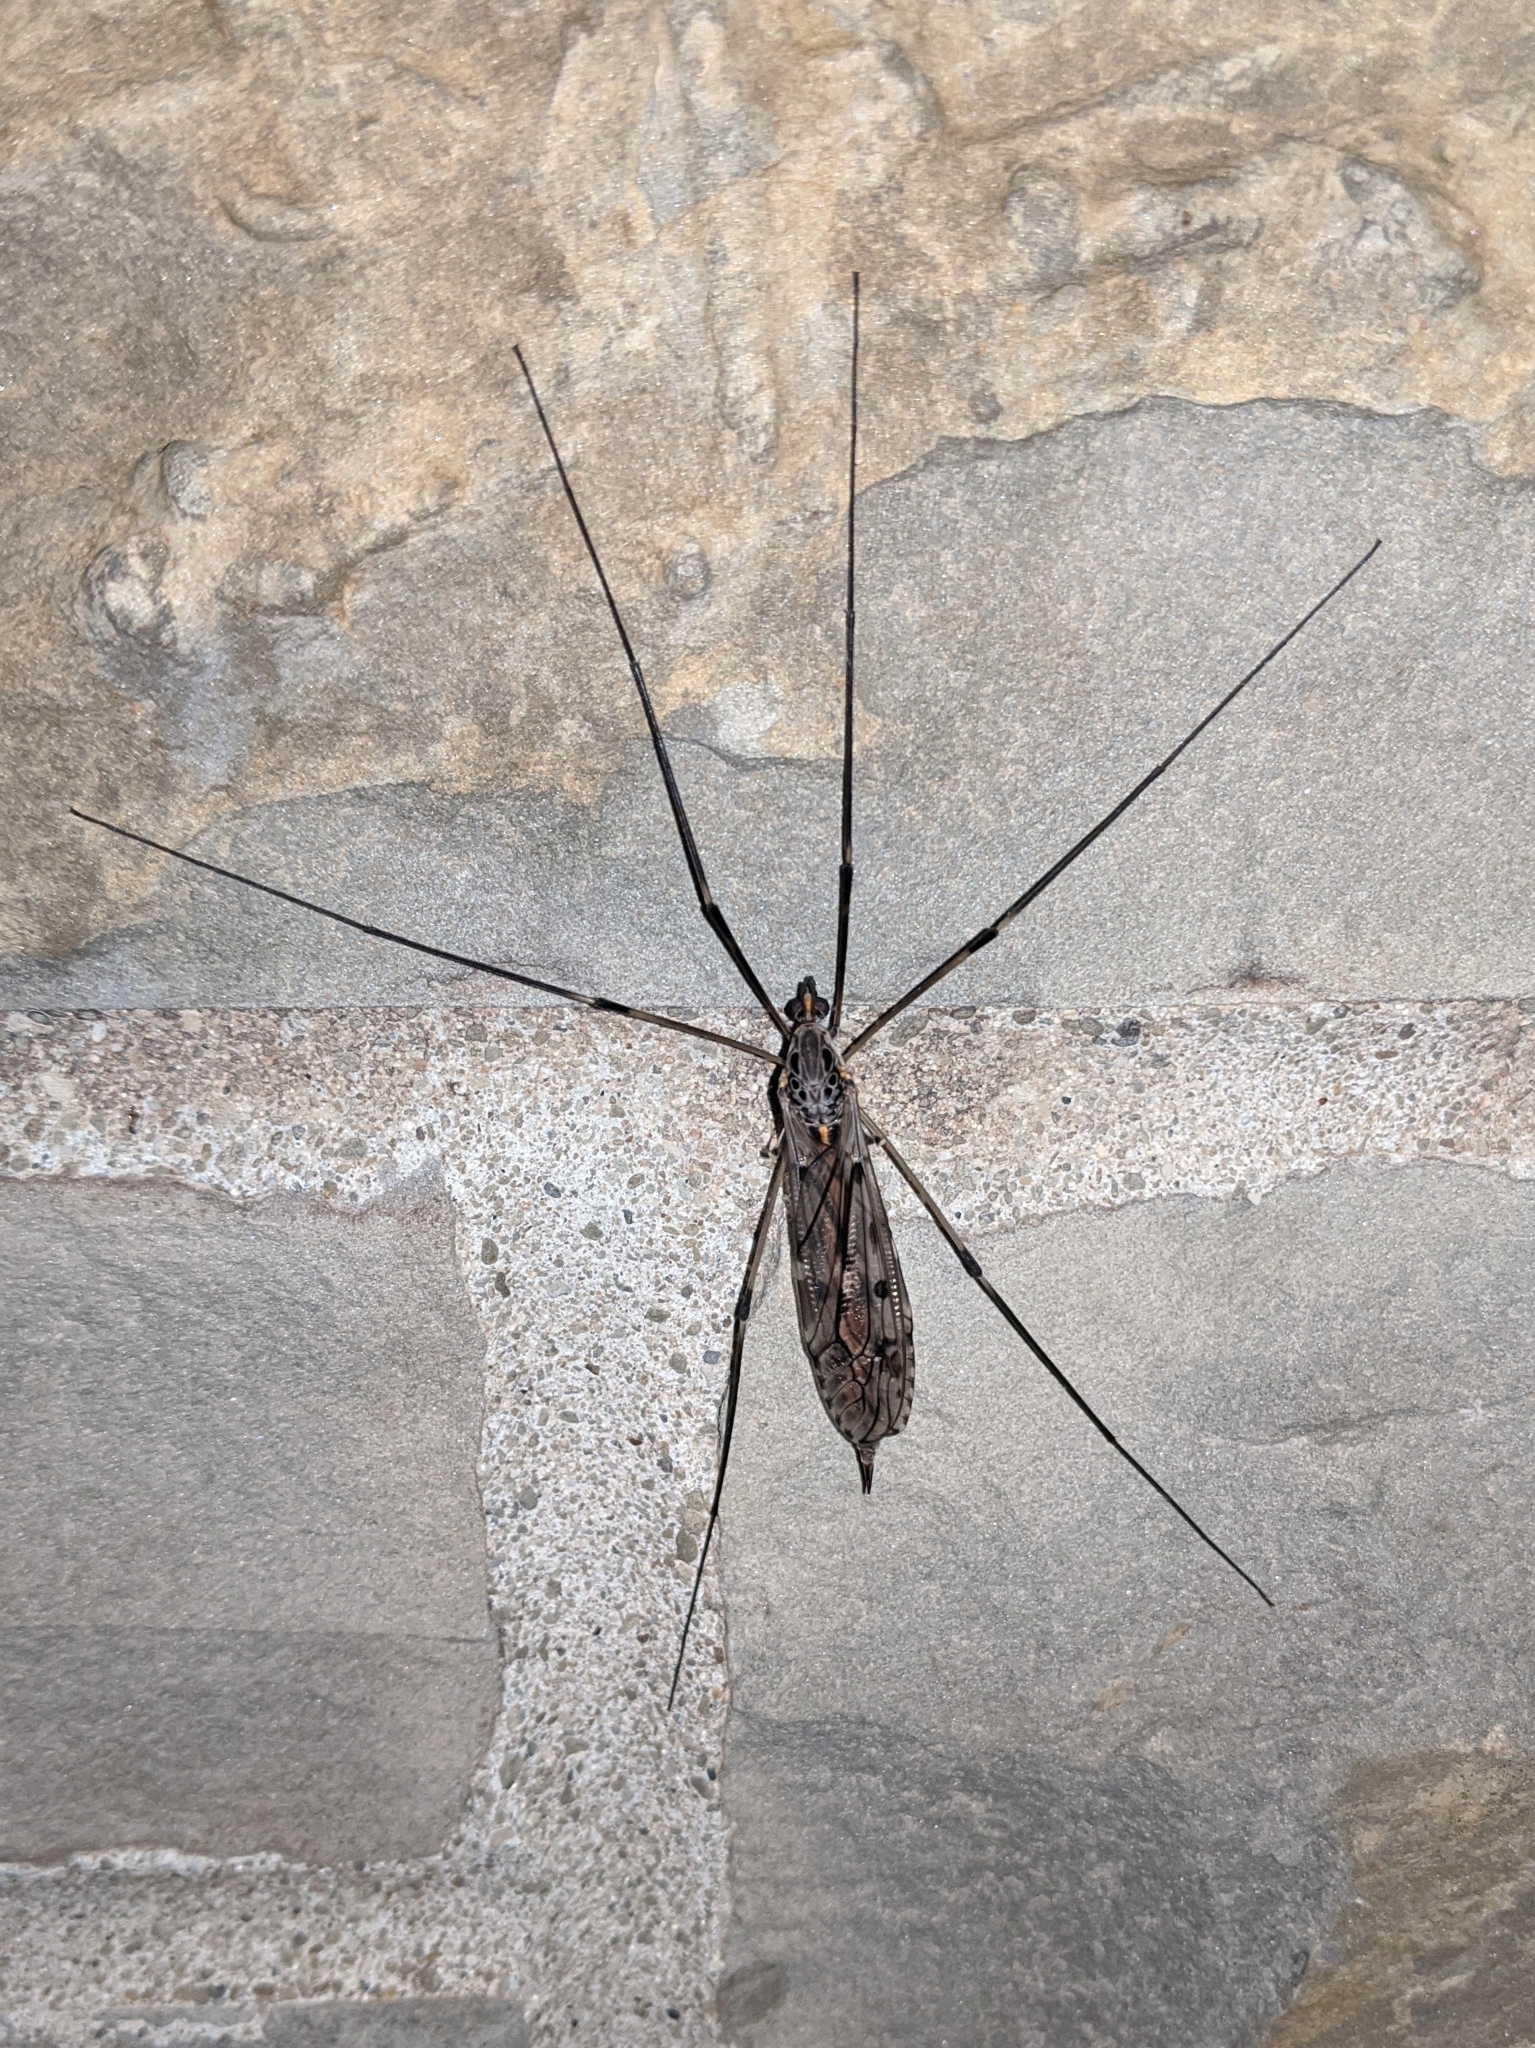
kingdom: Animalia
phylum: Arthropoda
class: Insecta
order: Diptera
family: Tipulidae
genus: Tipula
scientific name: Tipula abdominalis
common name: Giant crane fly
